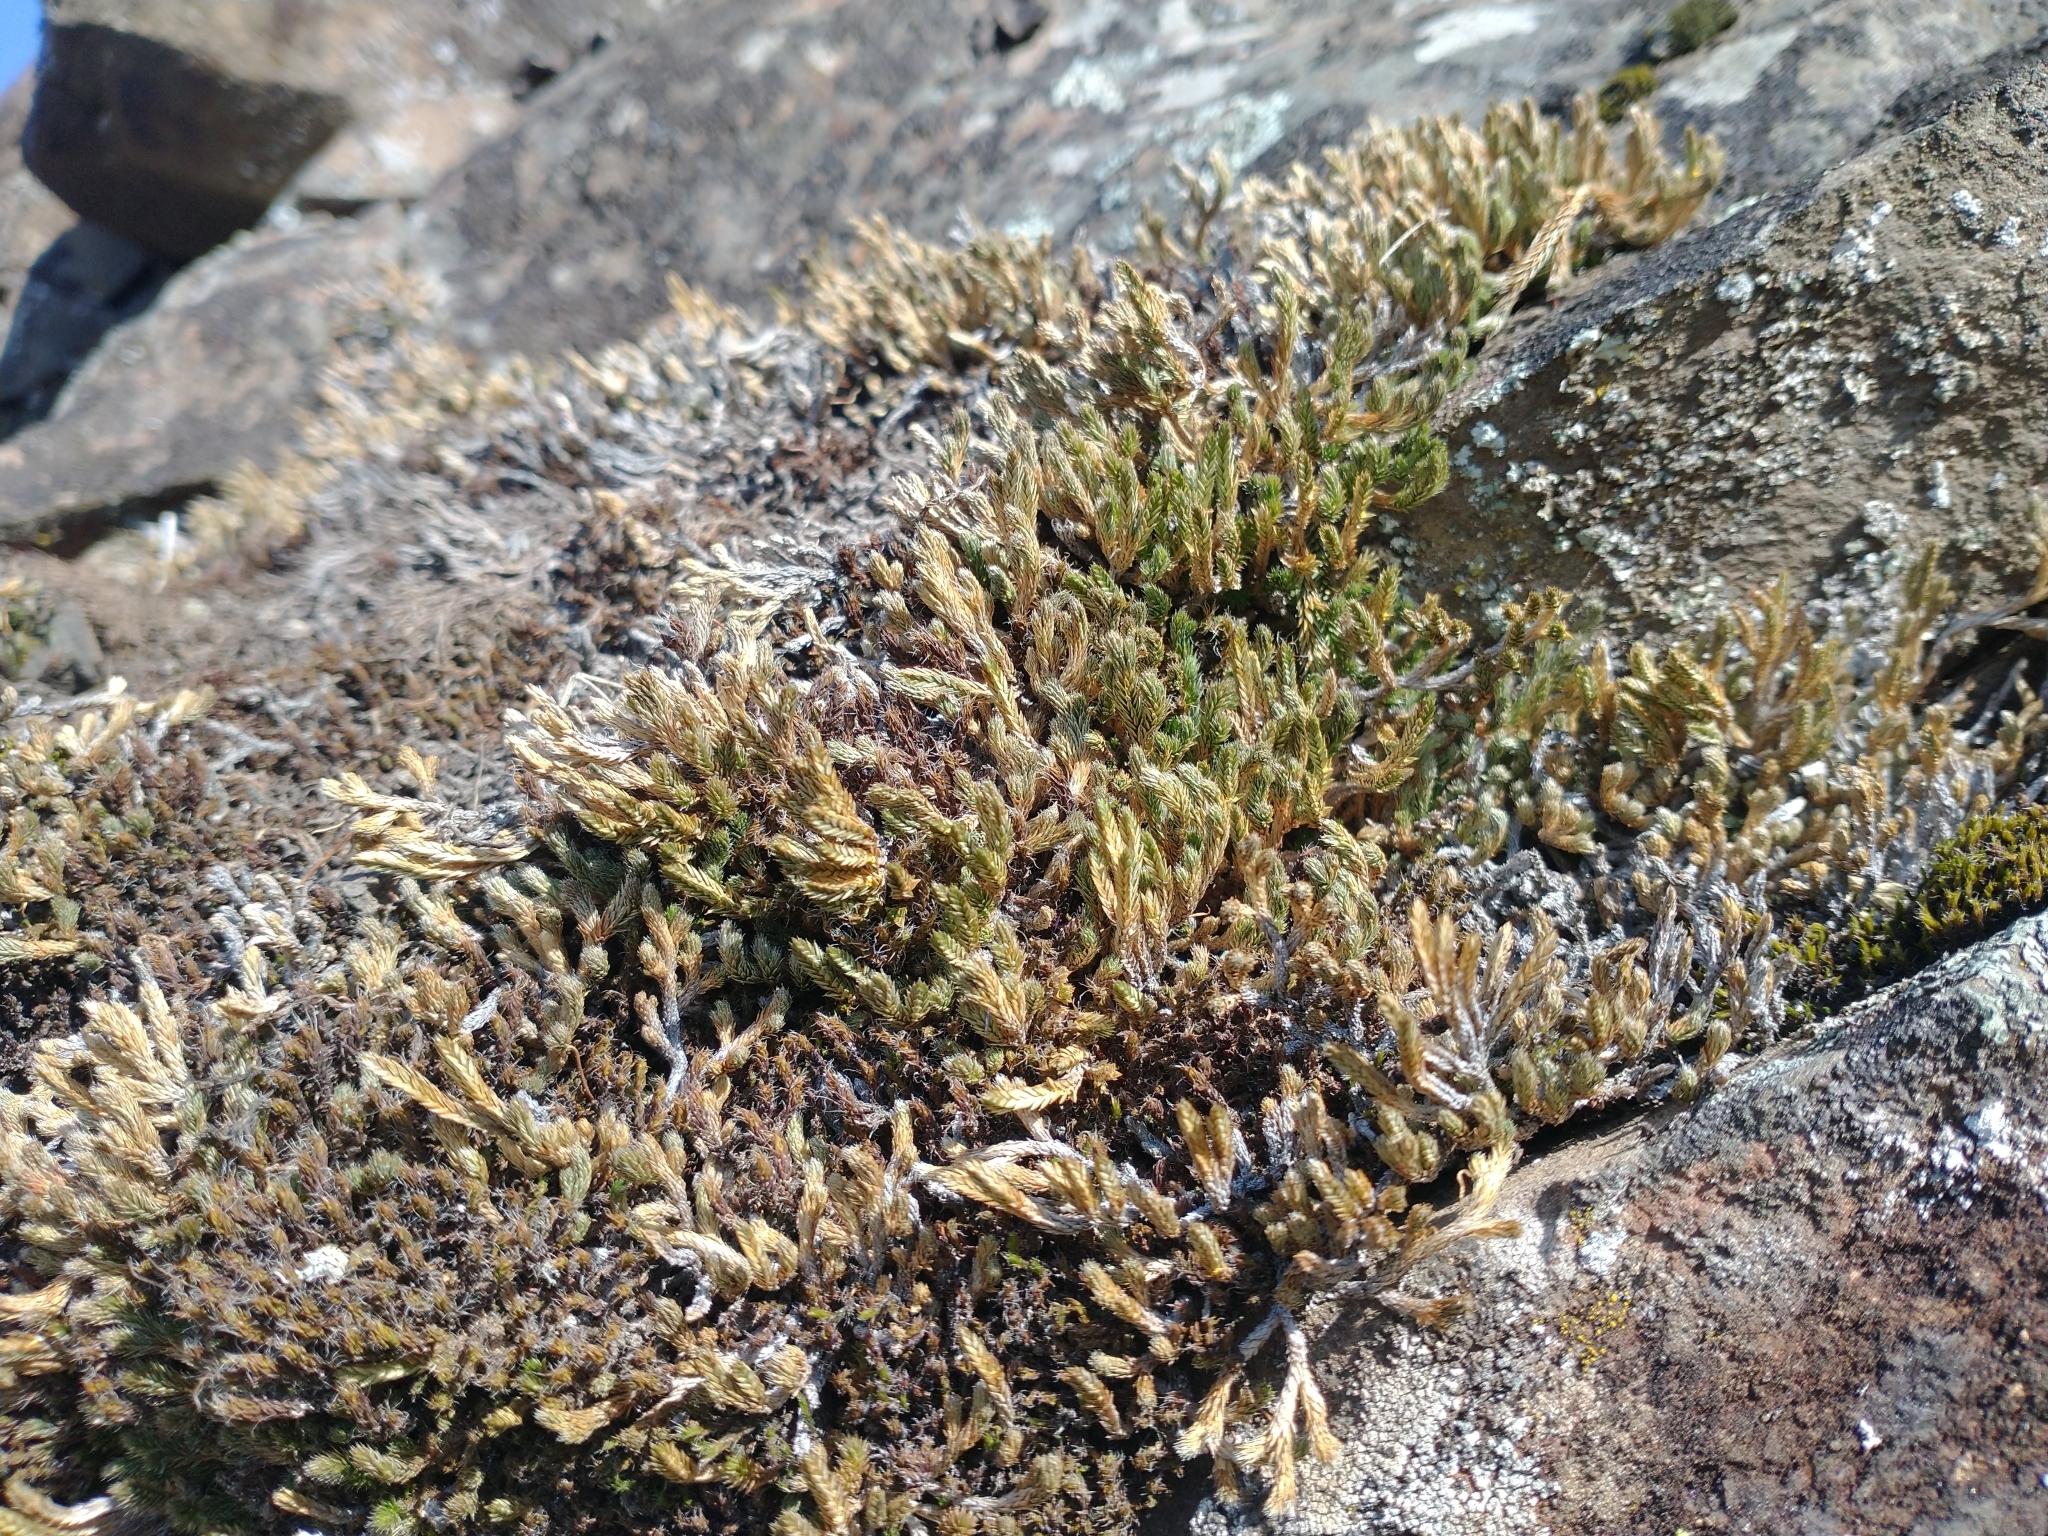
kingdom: Plantae
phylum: Tracheophyta
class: Lycopodiopsida
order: Selaginellales
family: Selaginellaceae
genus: Selaginella
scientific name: Selaginella wallacei
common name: Wallace's selaginella
